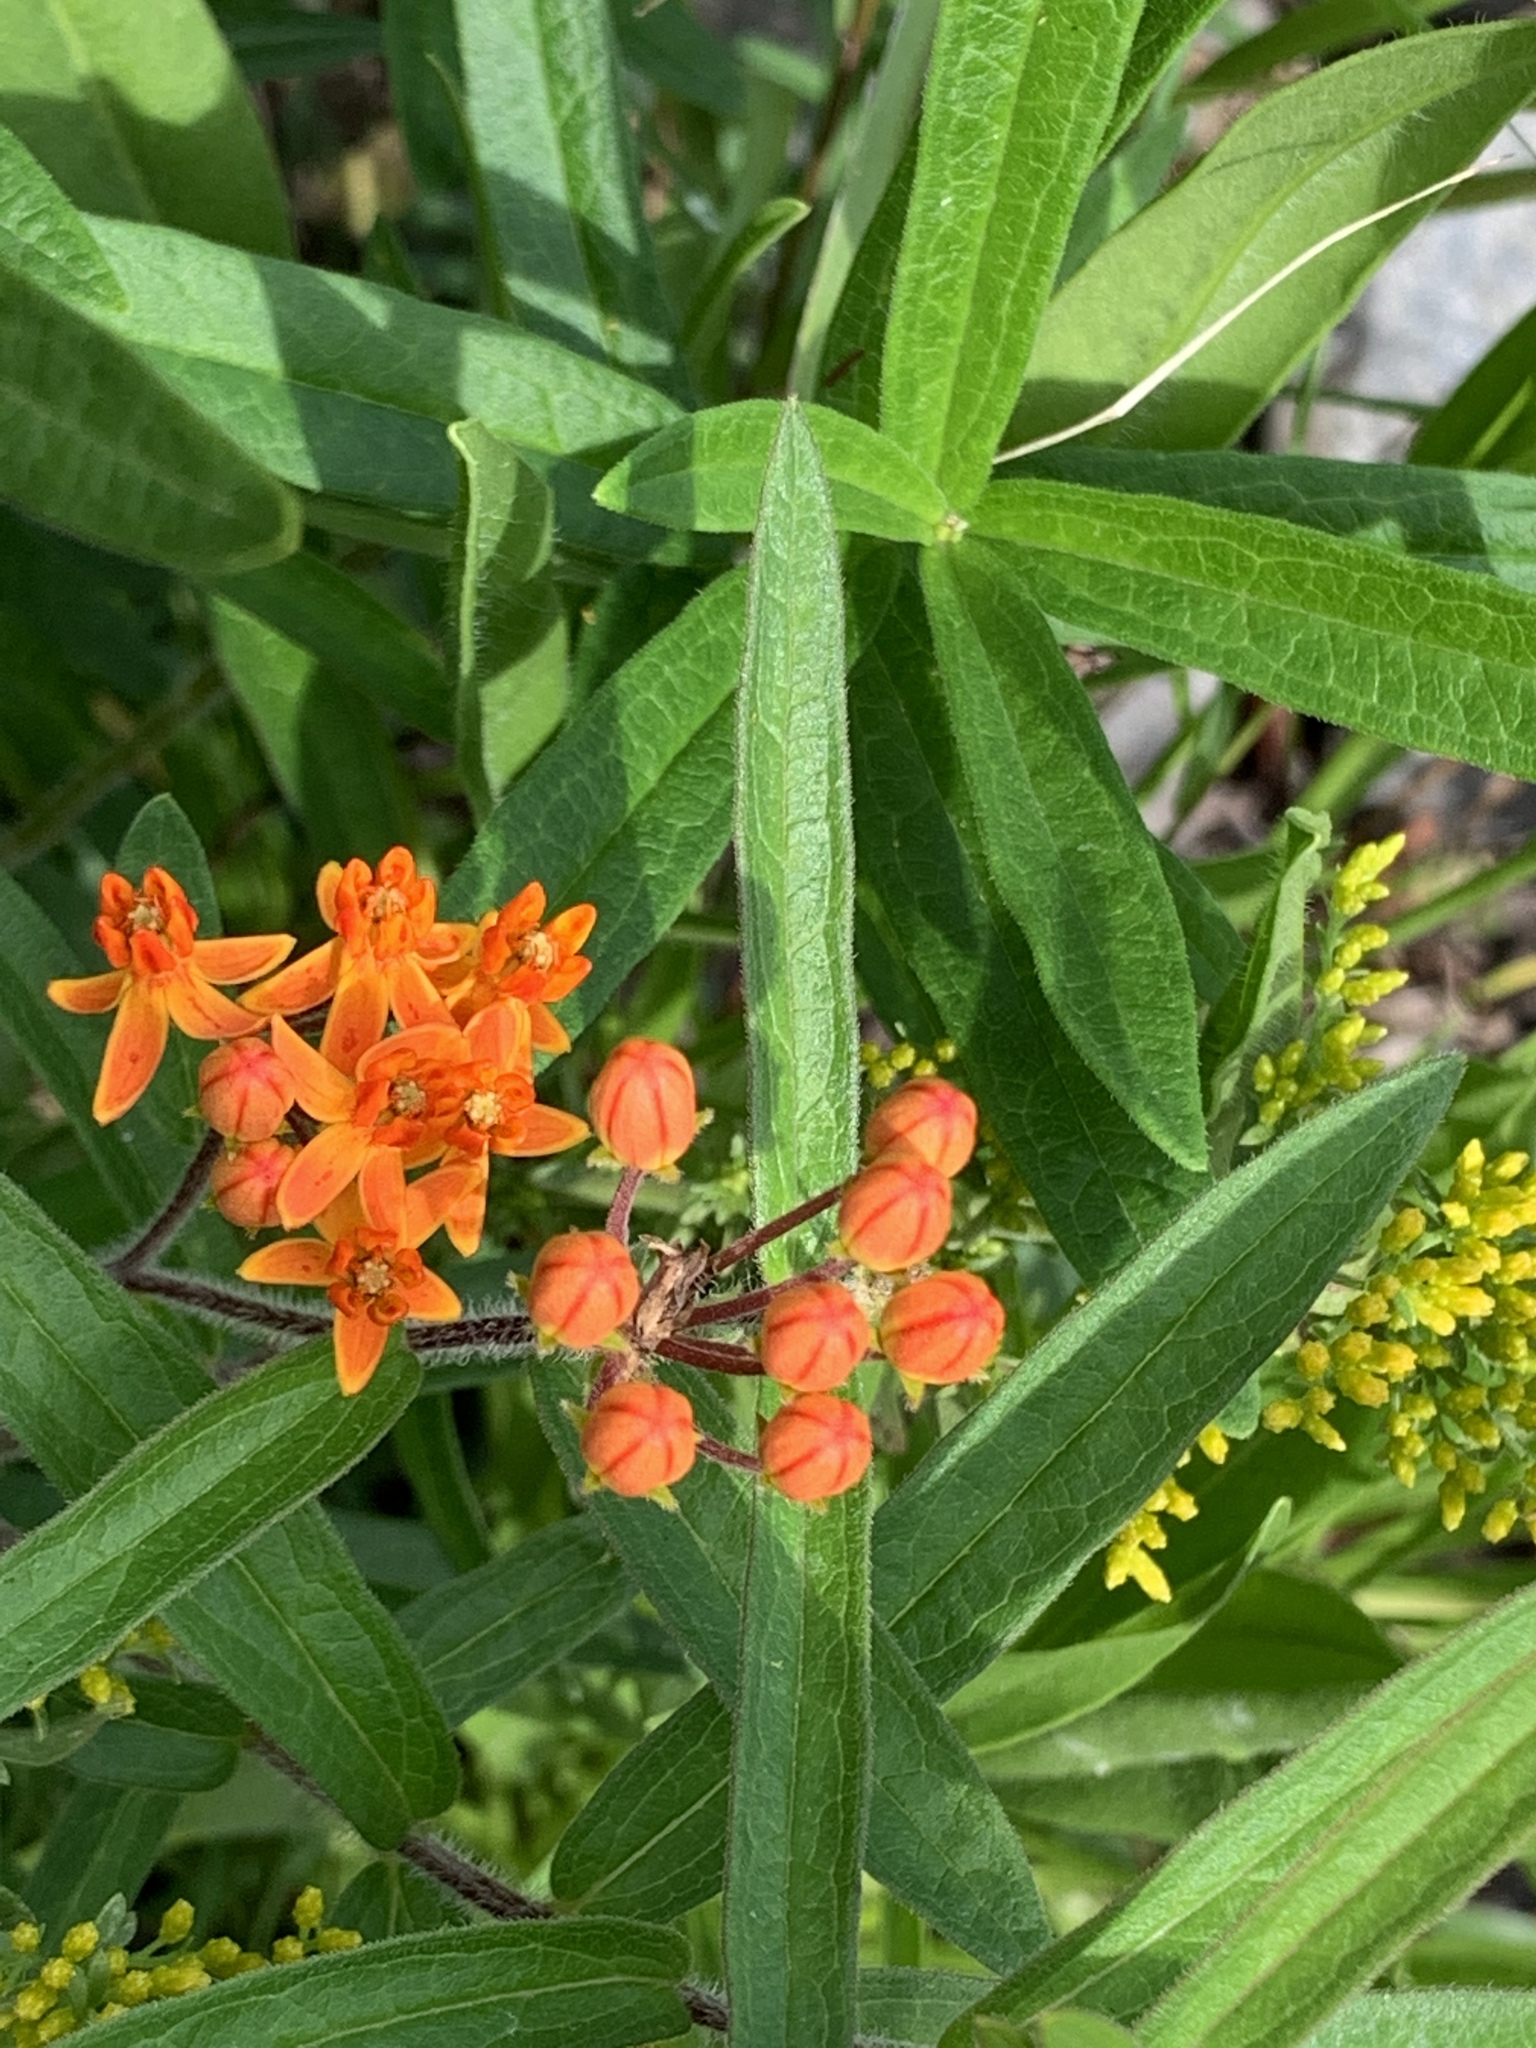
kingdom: Plantae
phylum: Tracheophyta
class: Magnoliopsida
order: Gentianales
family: Apocynaceae
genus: Asclepias
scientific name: Asclepias tuberosa
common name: Butterfly milkweed
